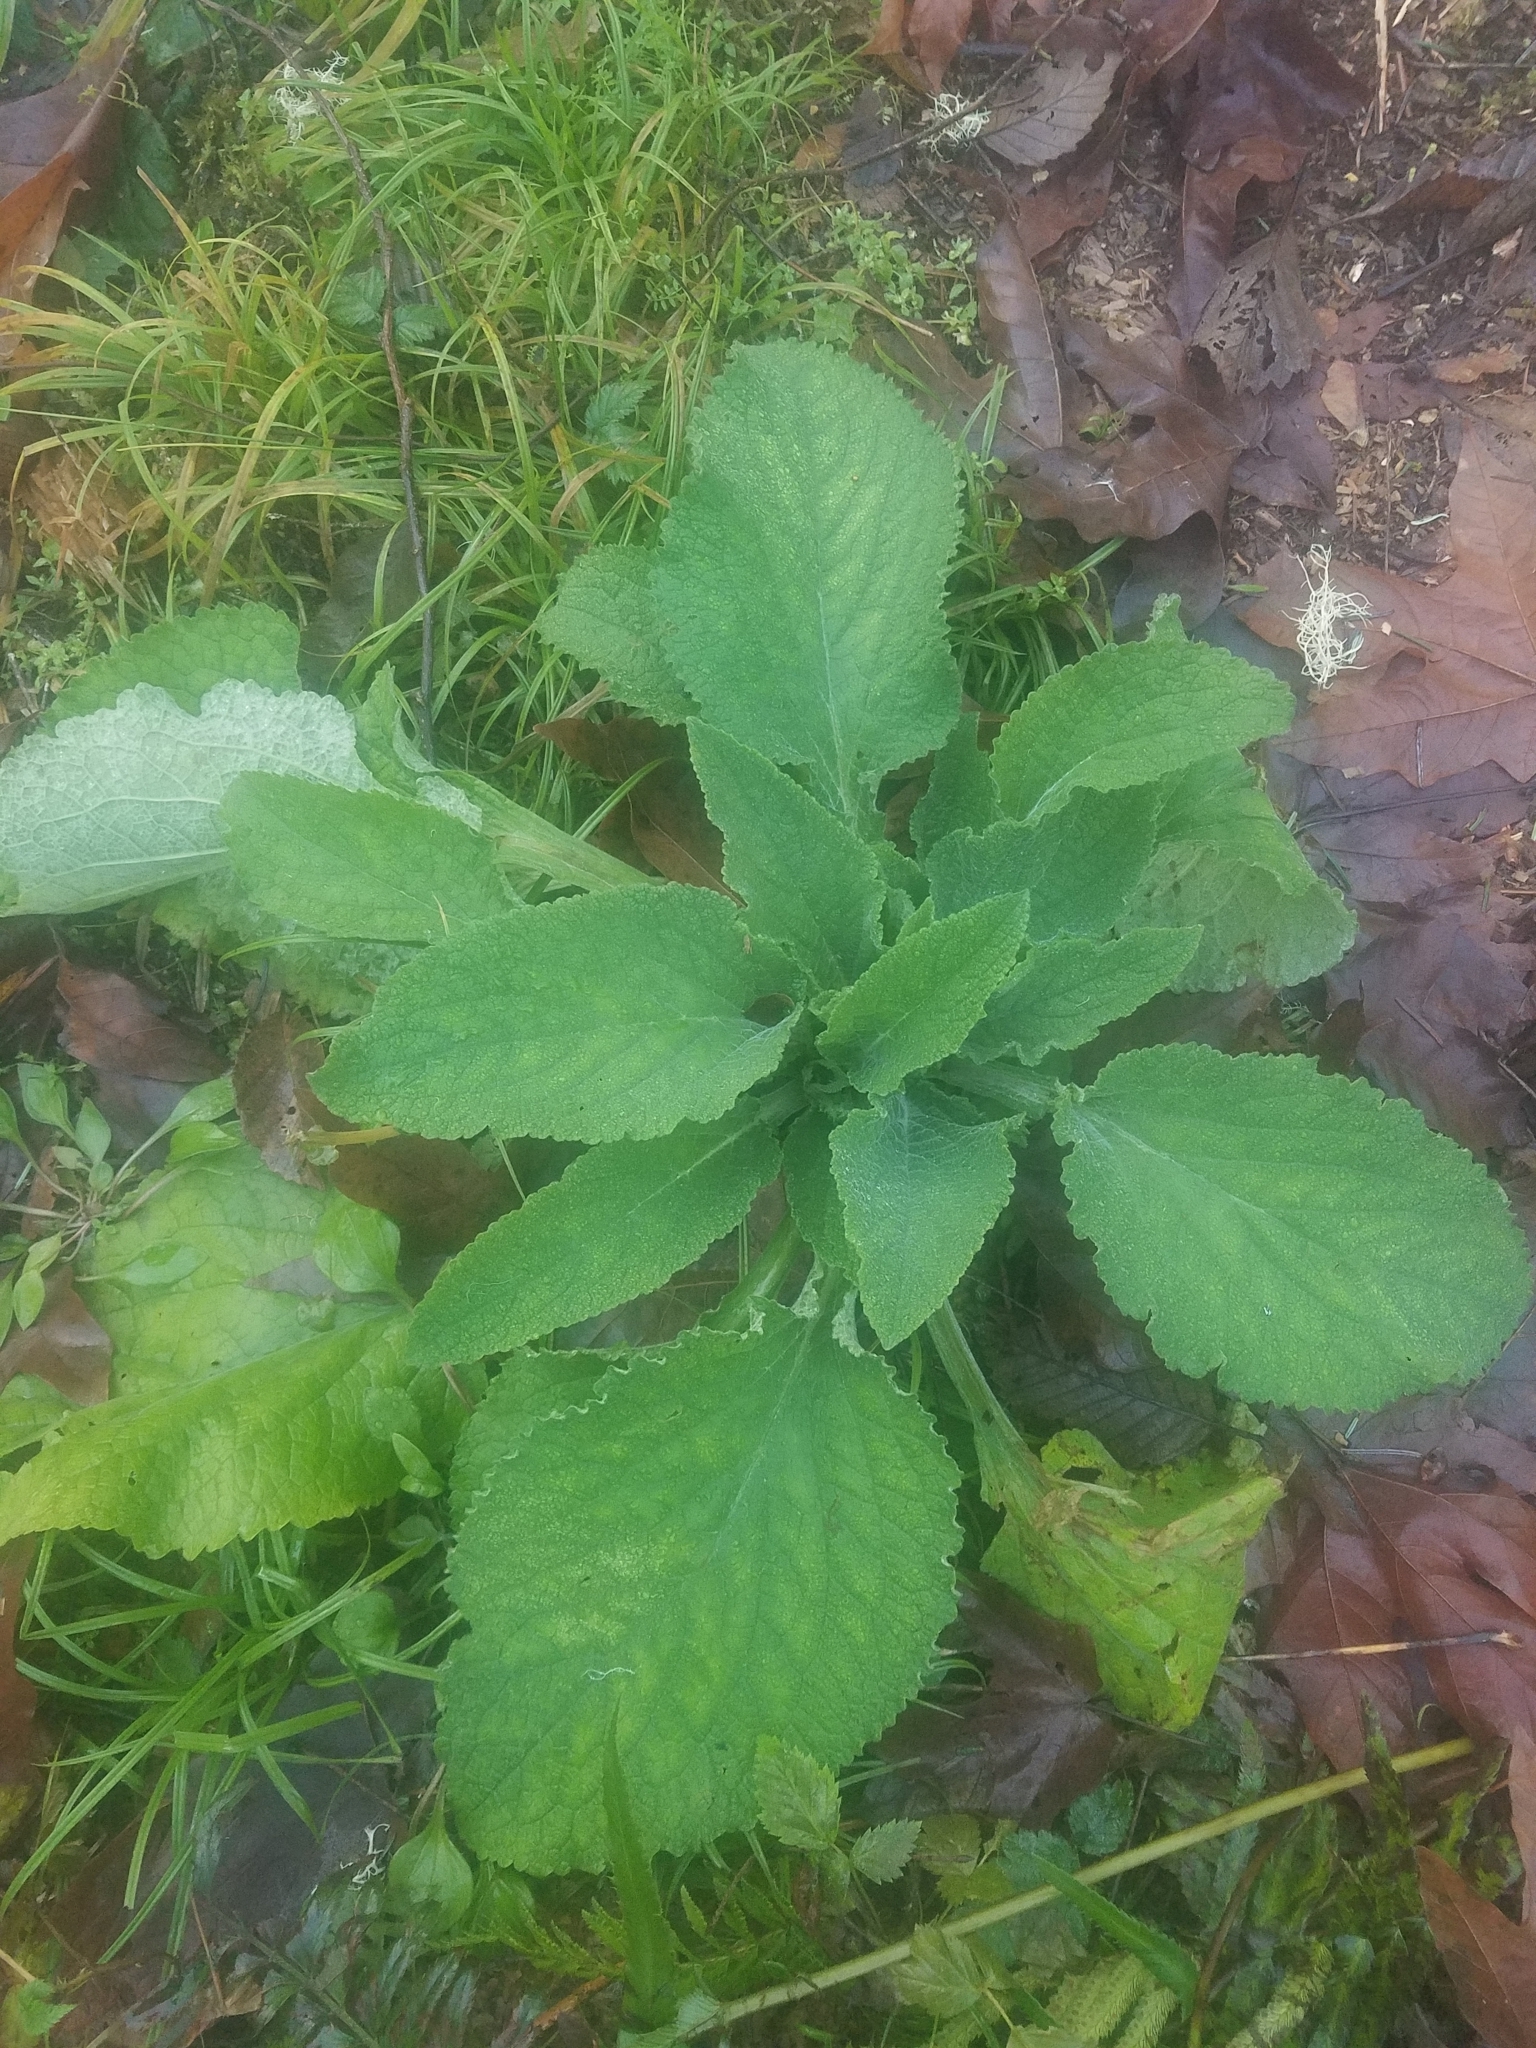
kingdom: Plantae
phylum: Tracheophyta
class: Magnoliopsida
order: Lamiales
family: Plantaginaceae
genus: Digitalis
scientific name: Digitalis purpurea
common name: Foxglove
